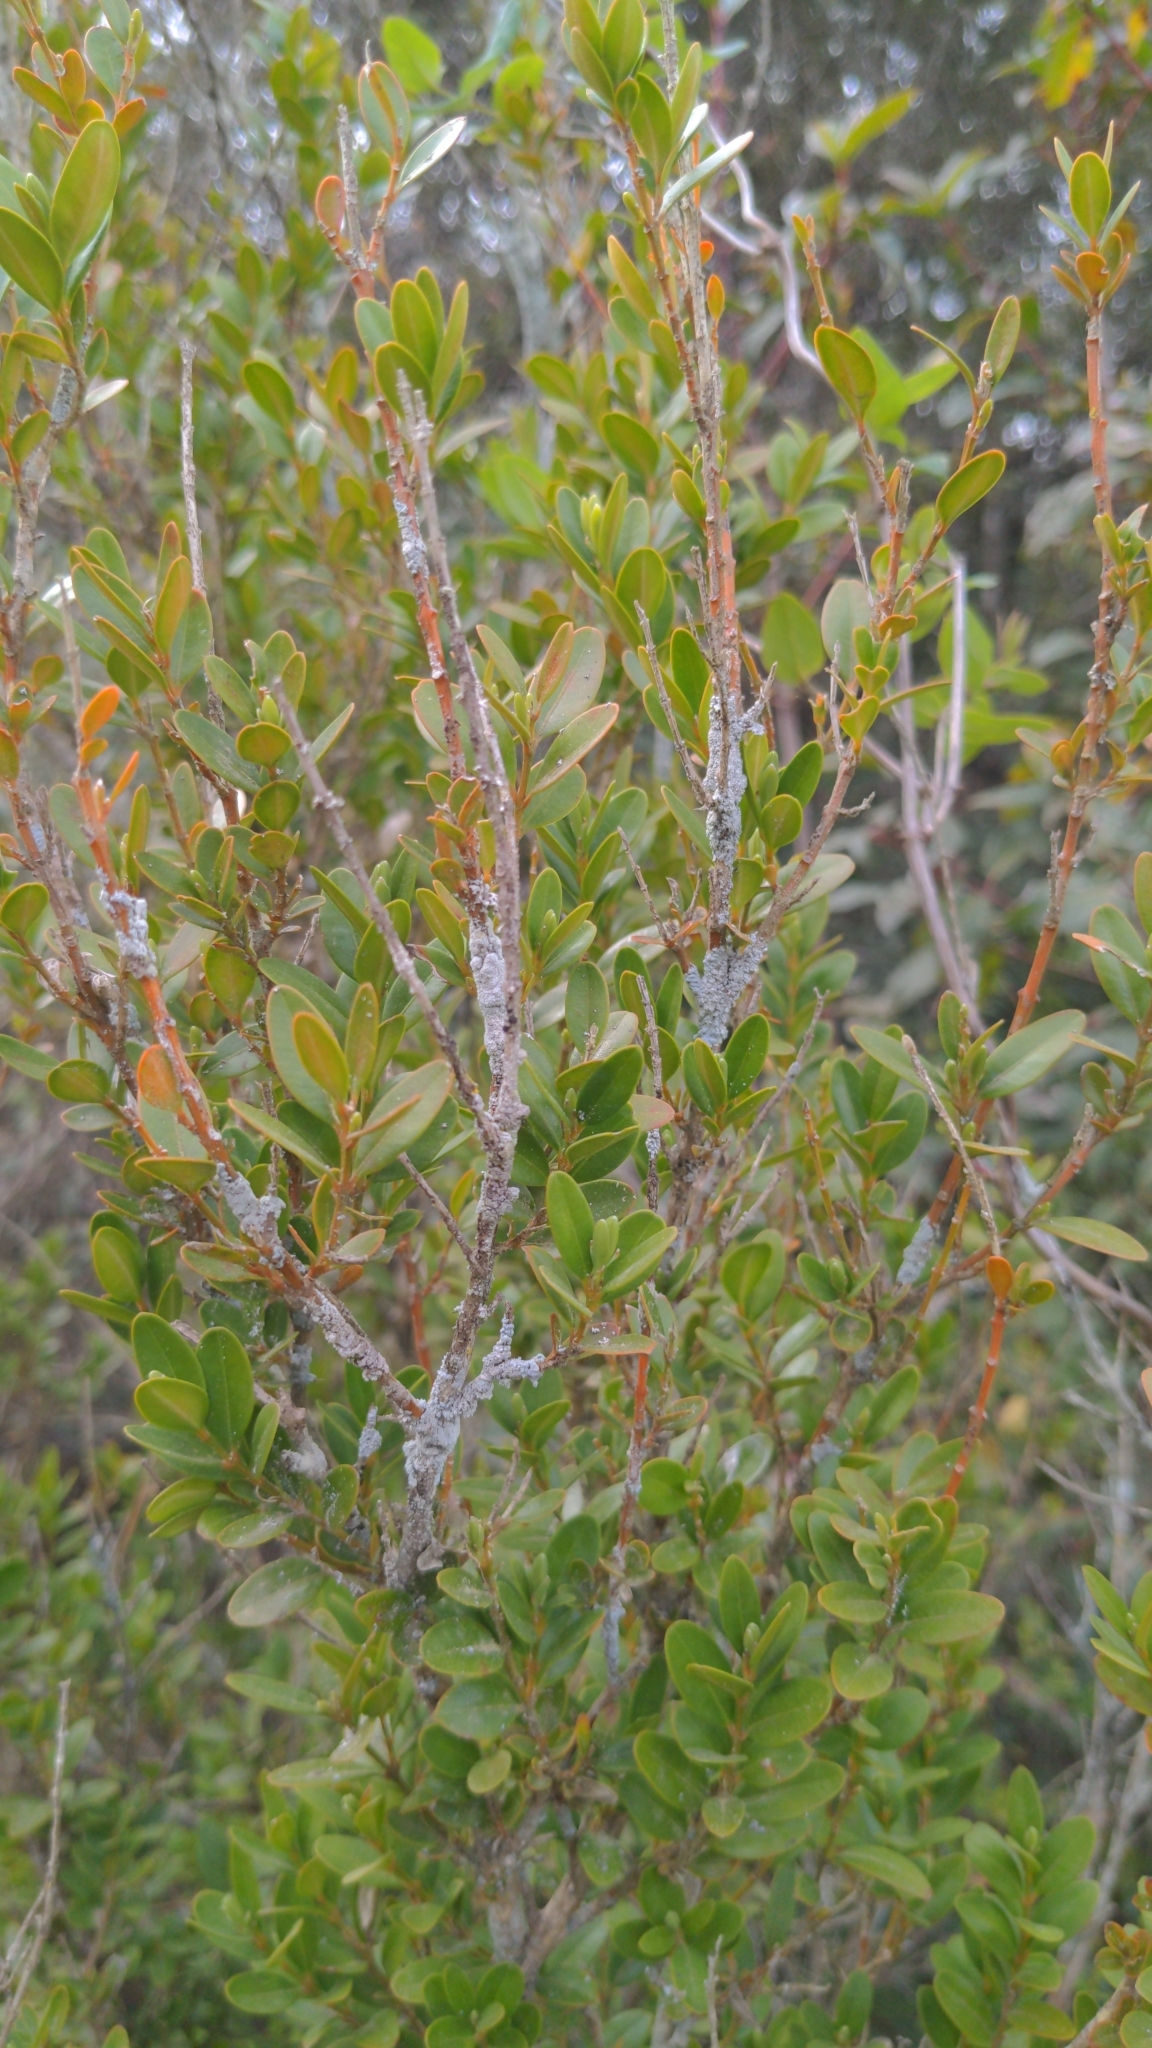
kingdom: Plantae
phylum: Tracheophyta
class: Magnoliopsida
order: Buxales
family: Buxaceae
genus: Buxus
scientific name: Buxus sempervirens
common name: Box
